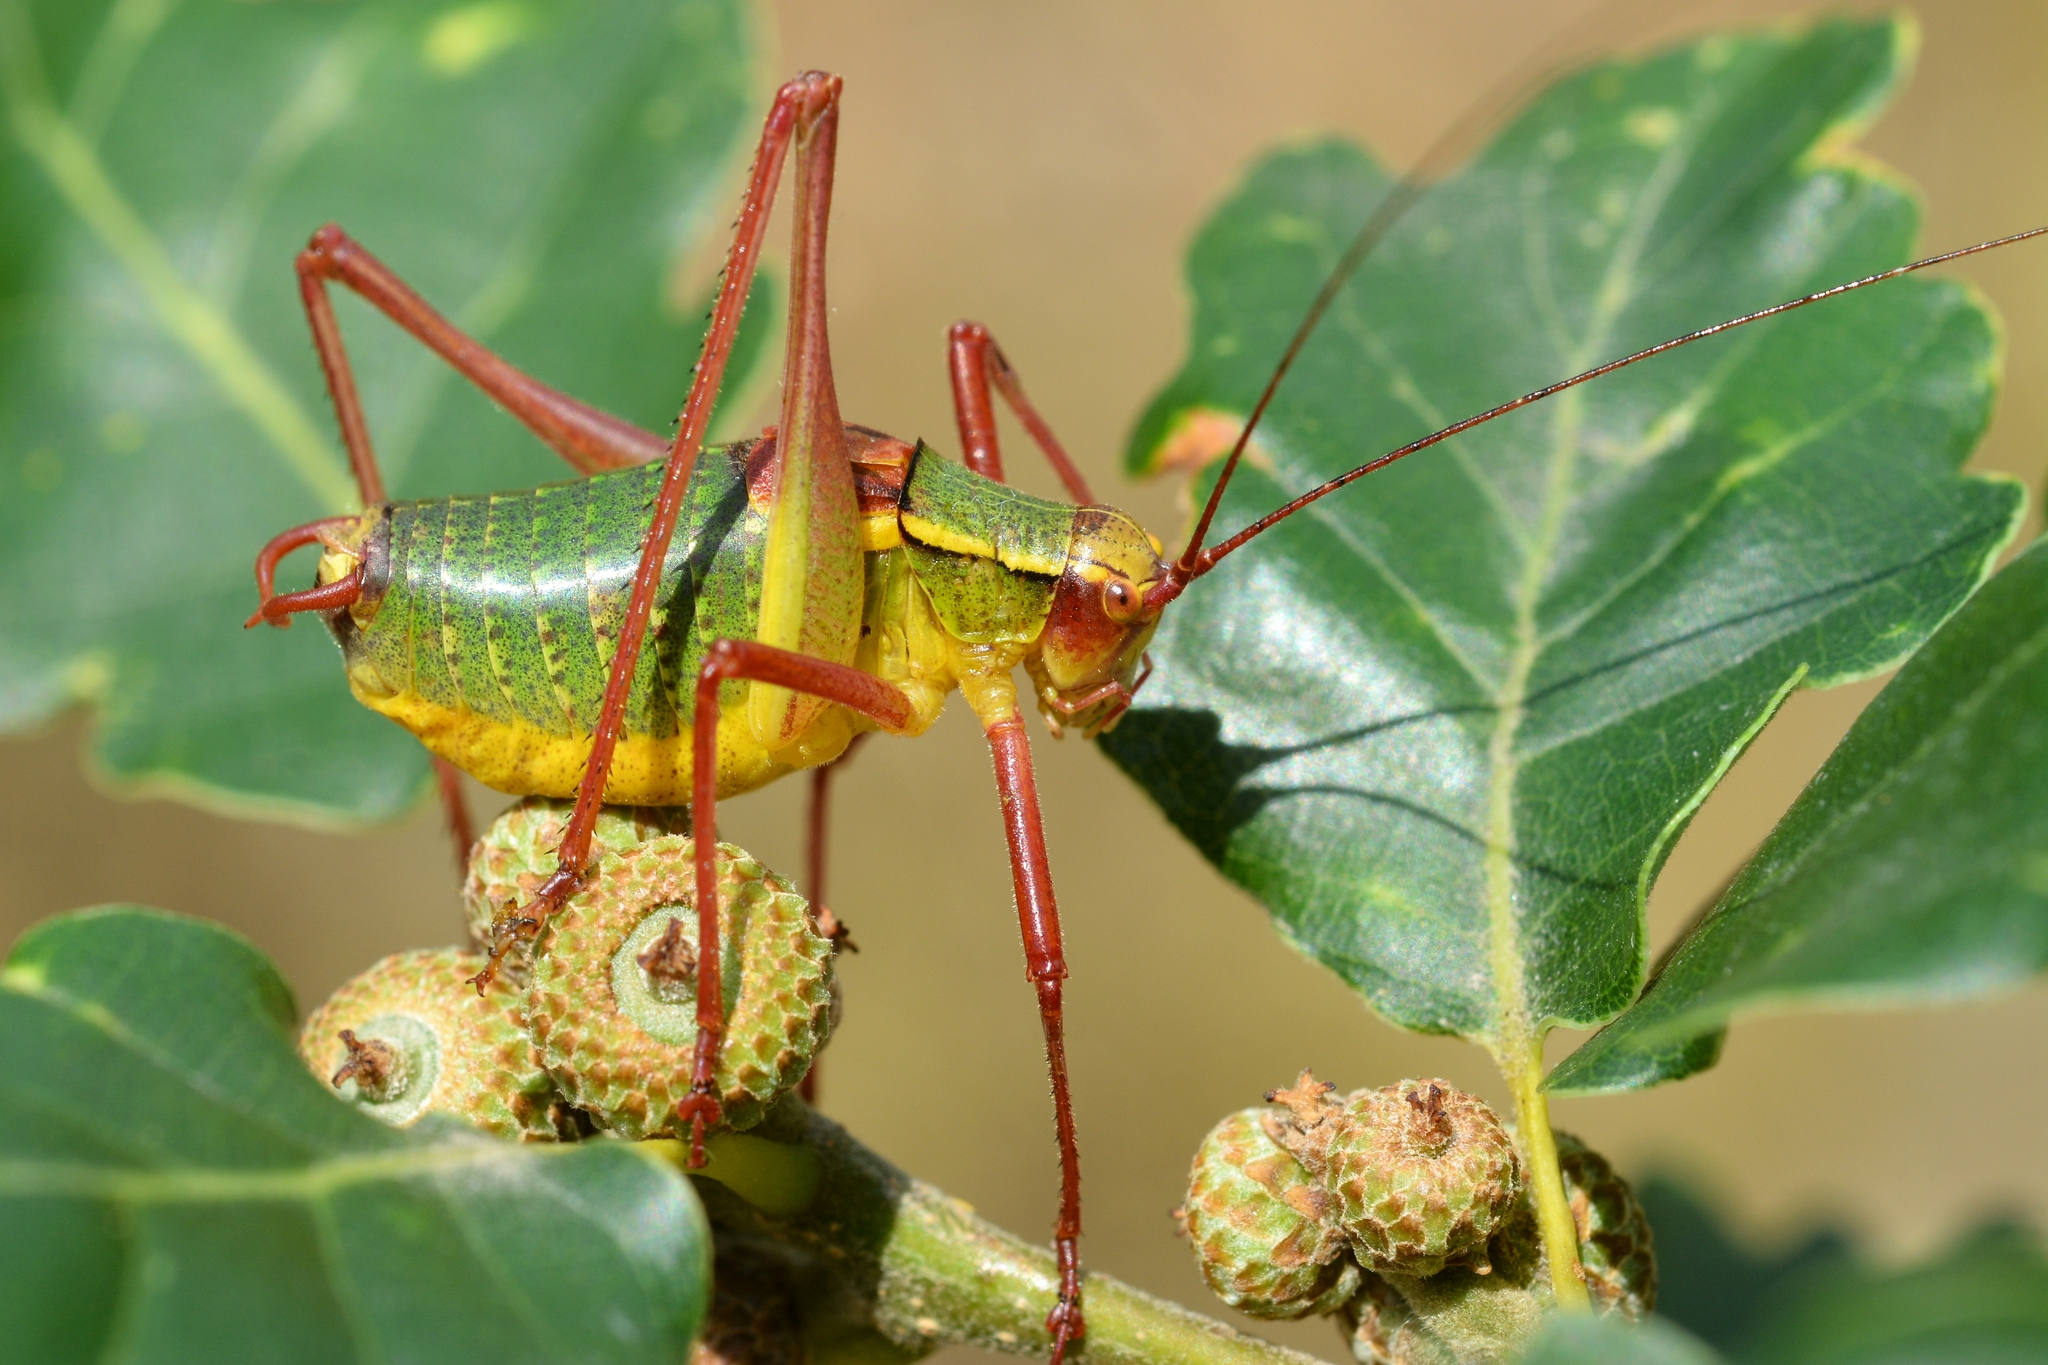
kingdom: Animalia
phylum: Arthropoda
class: Insecta
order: Orthoptera
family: Tettigoniidae
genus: Barbitistes
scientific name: Barbitistes serricauda
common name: Saw-tailed bush-cricket
